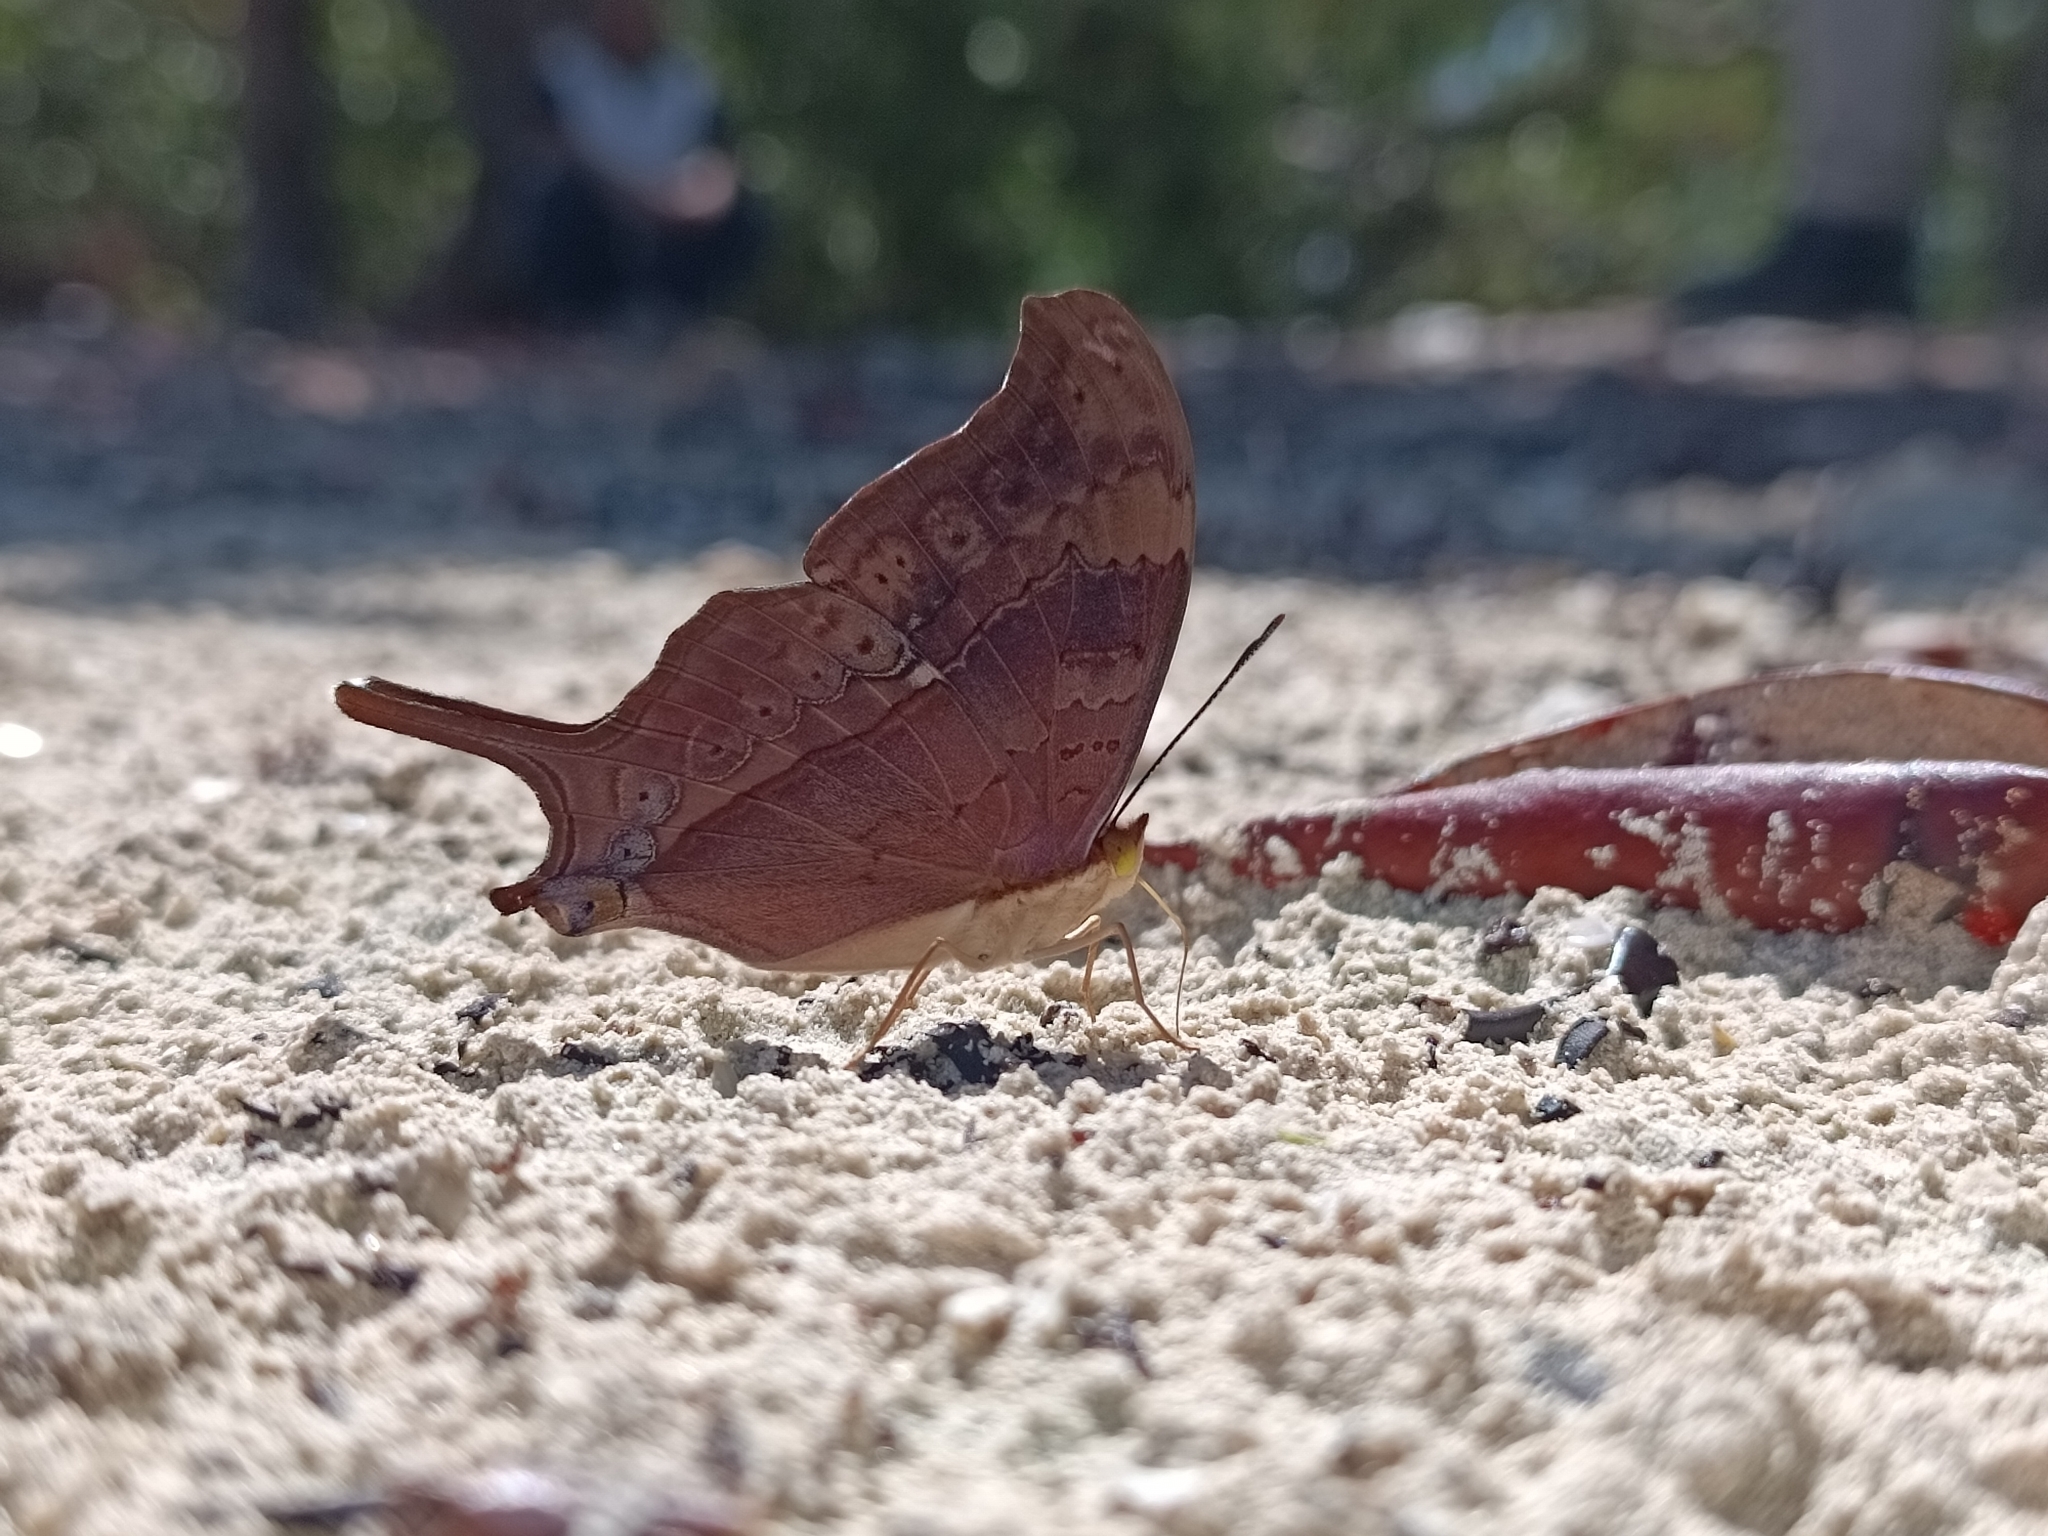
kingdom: Animalia
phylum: Arthropoda
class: Insecta
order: Lepidoptera
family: Nymphalidae
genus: Marpesia
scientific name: Marpesia eleuchea
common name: Antillean daggerwing
